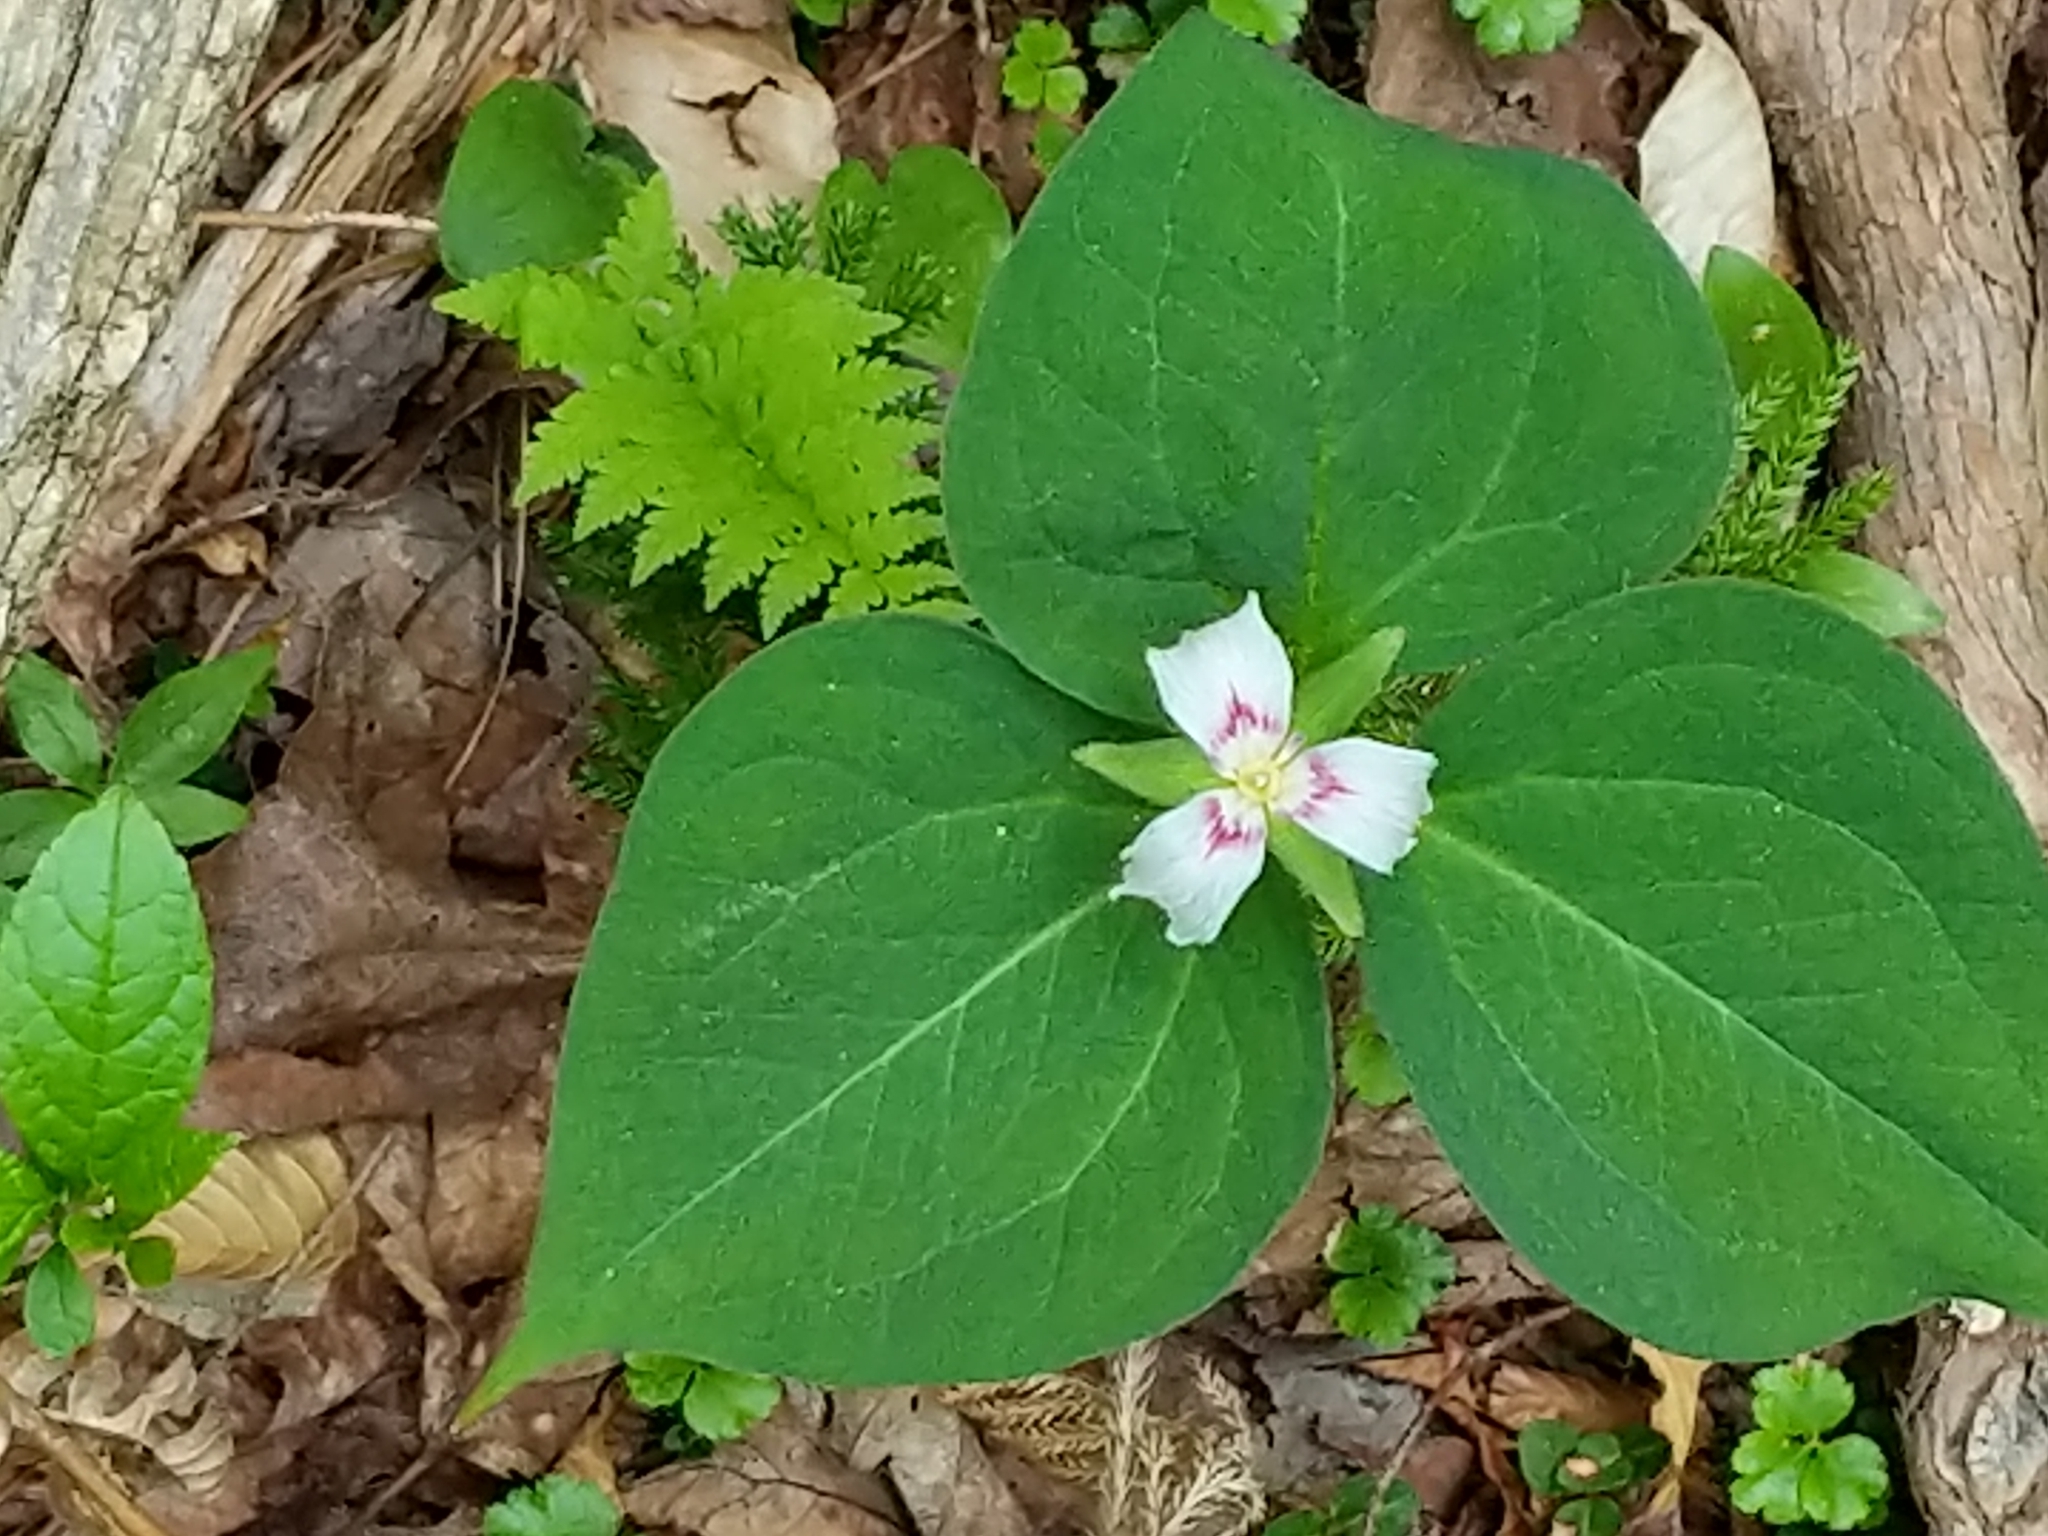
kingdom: Plantae
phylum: Tracheophyta
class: Liliopsida
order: Liliales
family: Melanthiaceae
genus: Trillium
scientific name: Trillium undulatum
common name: Paint trillium
